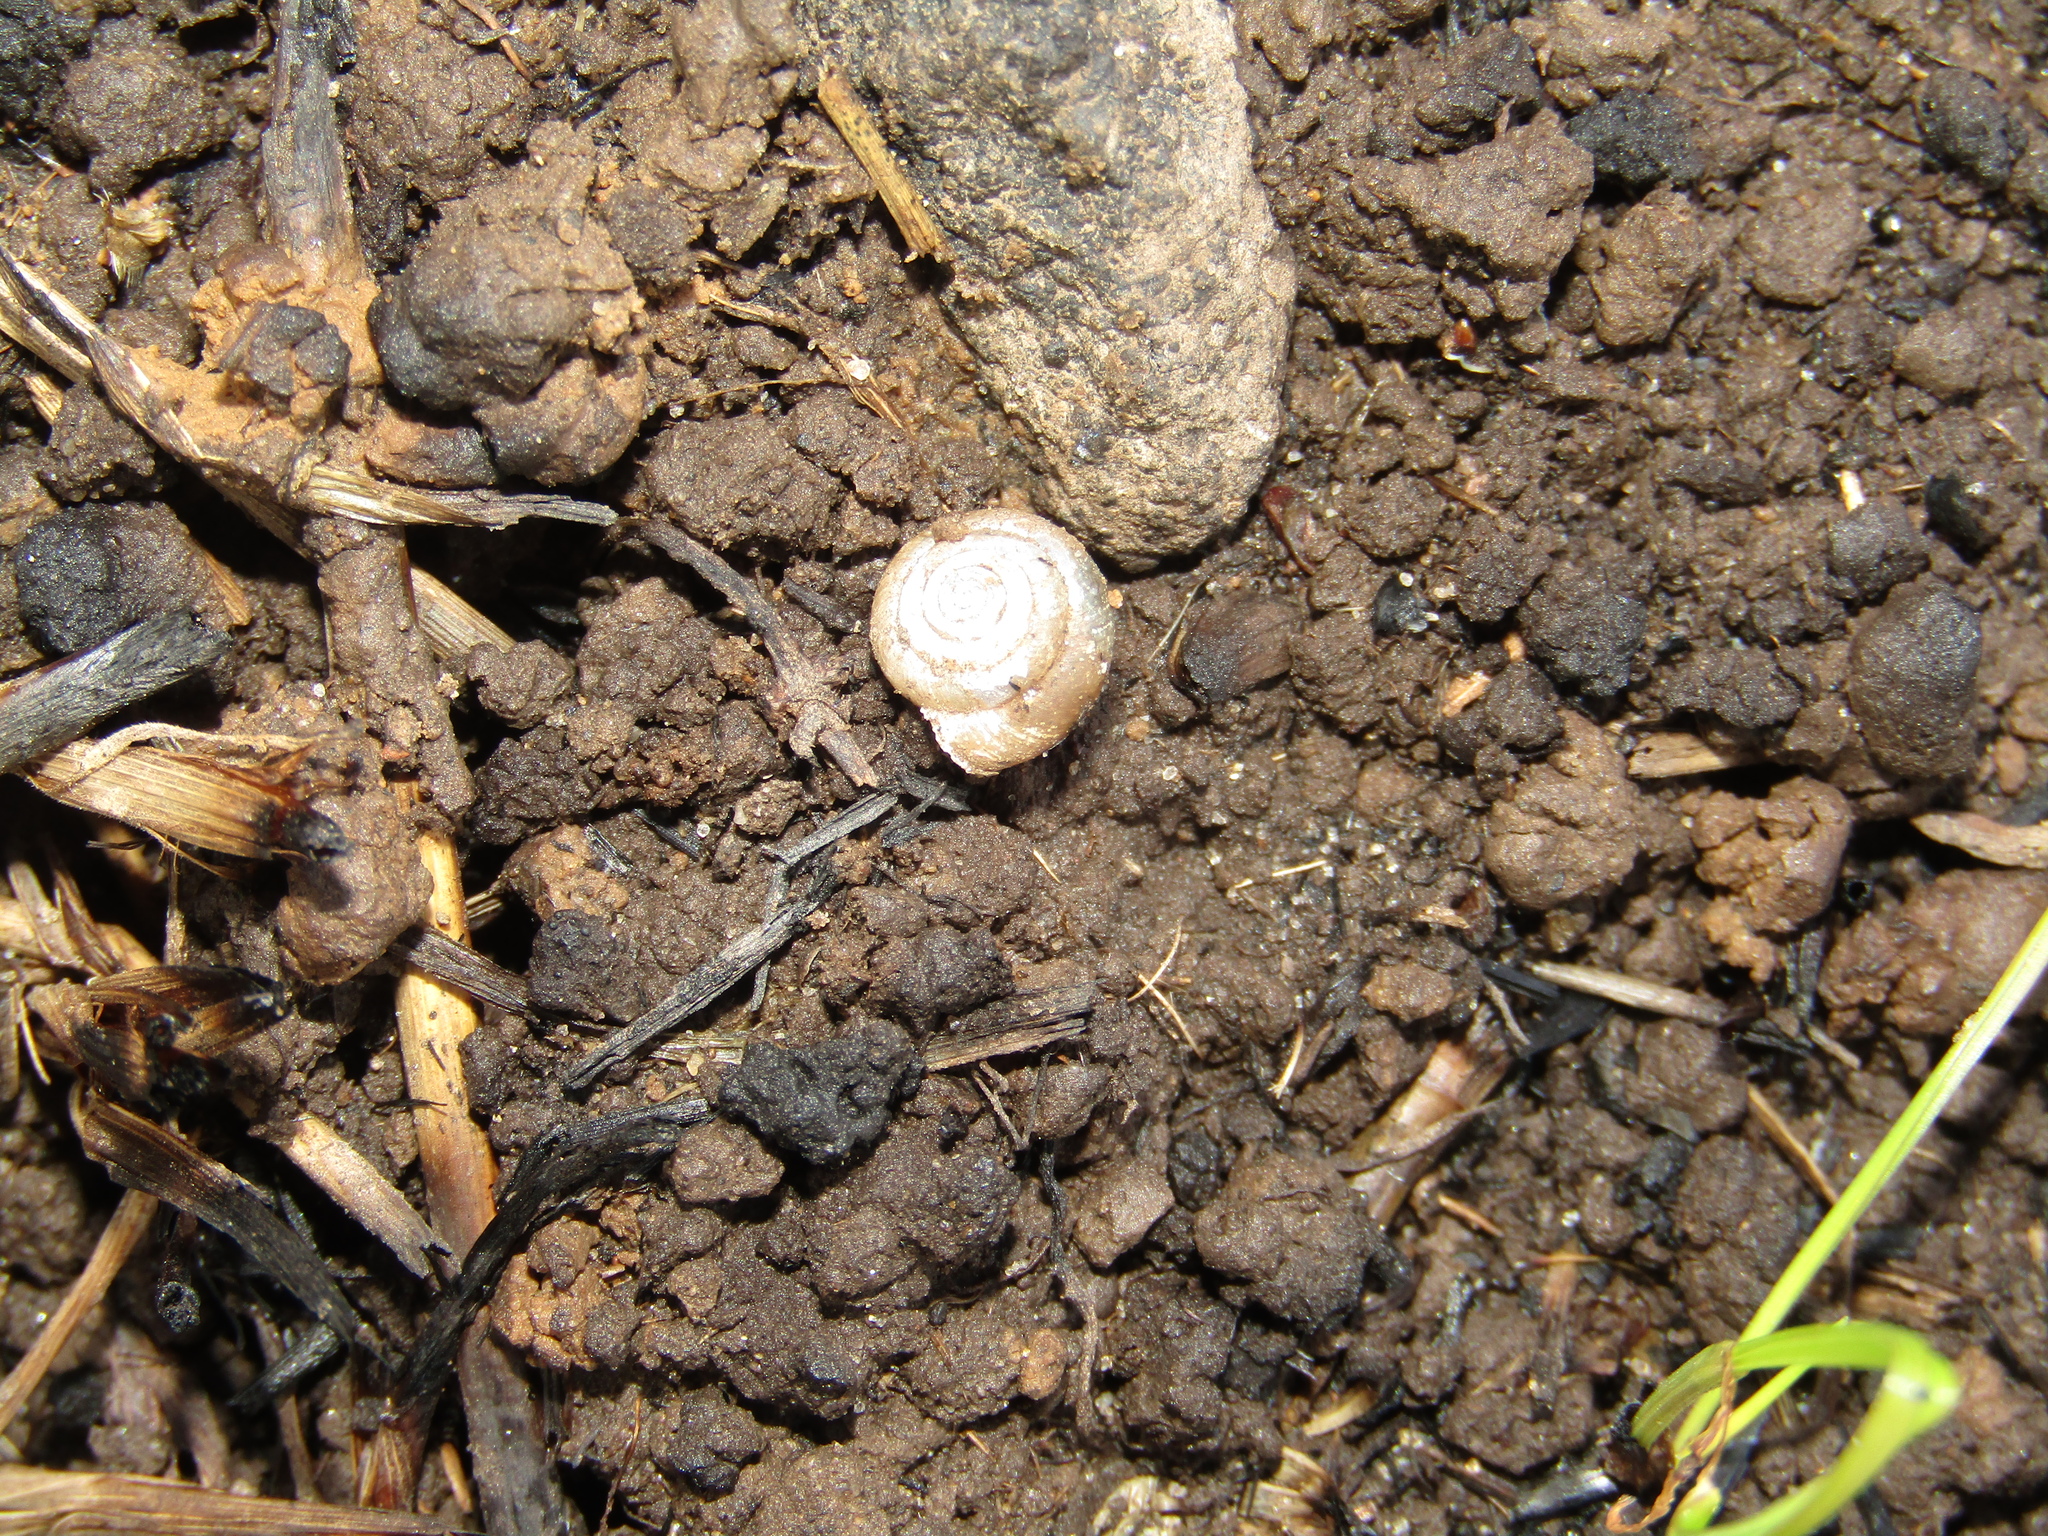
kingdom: Animalia
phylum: Mollusca
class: Gastropoda
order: Stylommatophora
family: Hygromiidae
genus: Trochulus
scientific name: Trochulus hispidus
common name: Hairy snail
